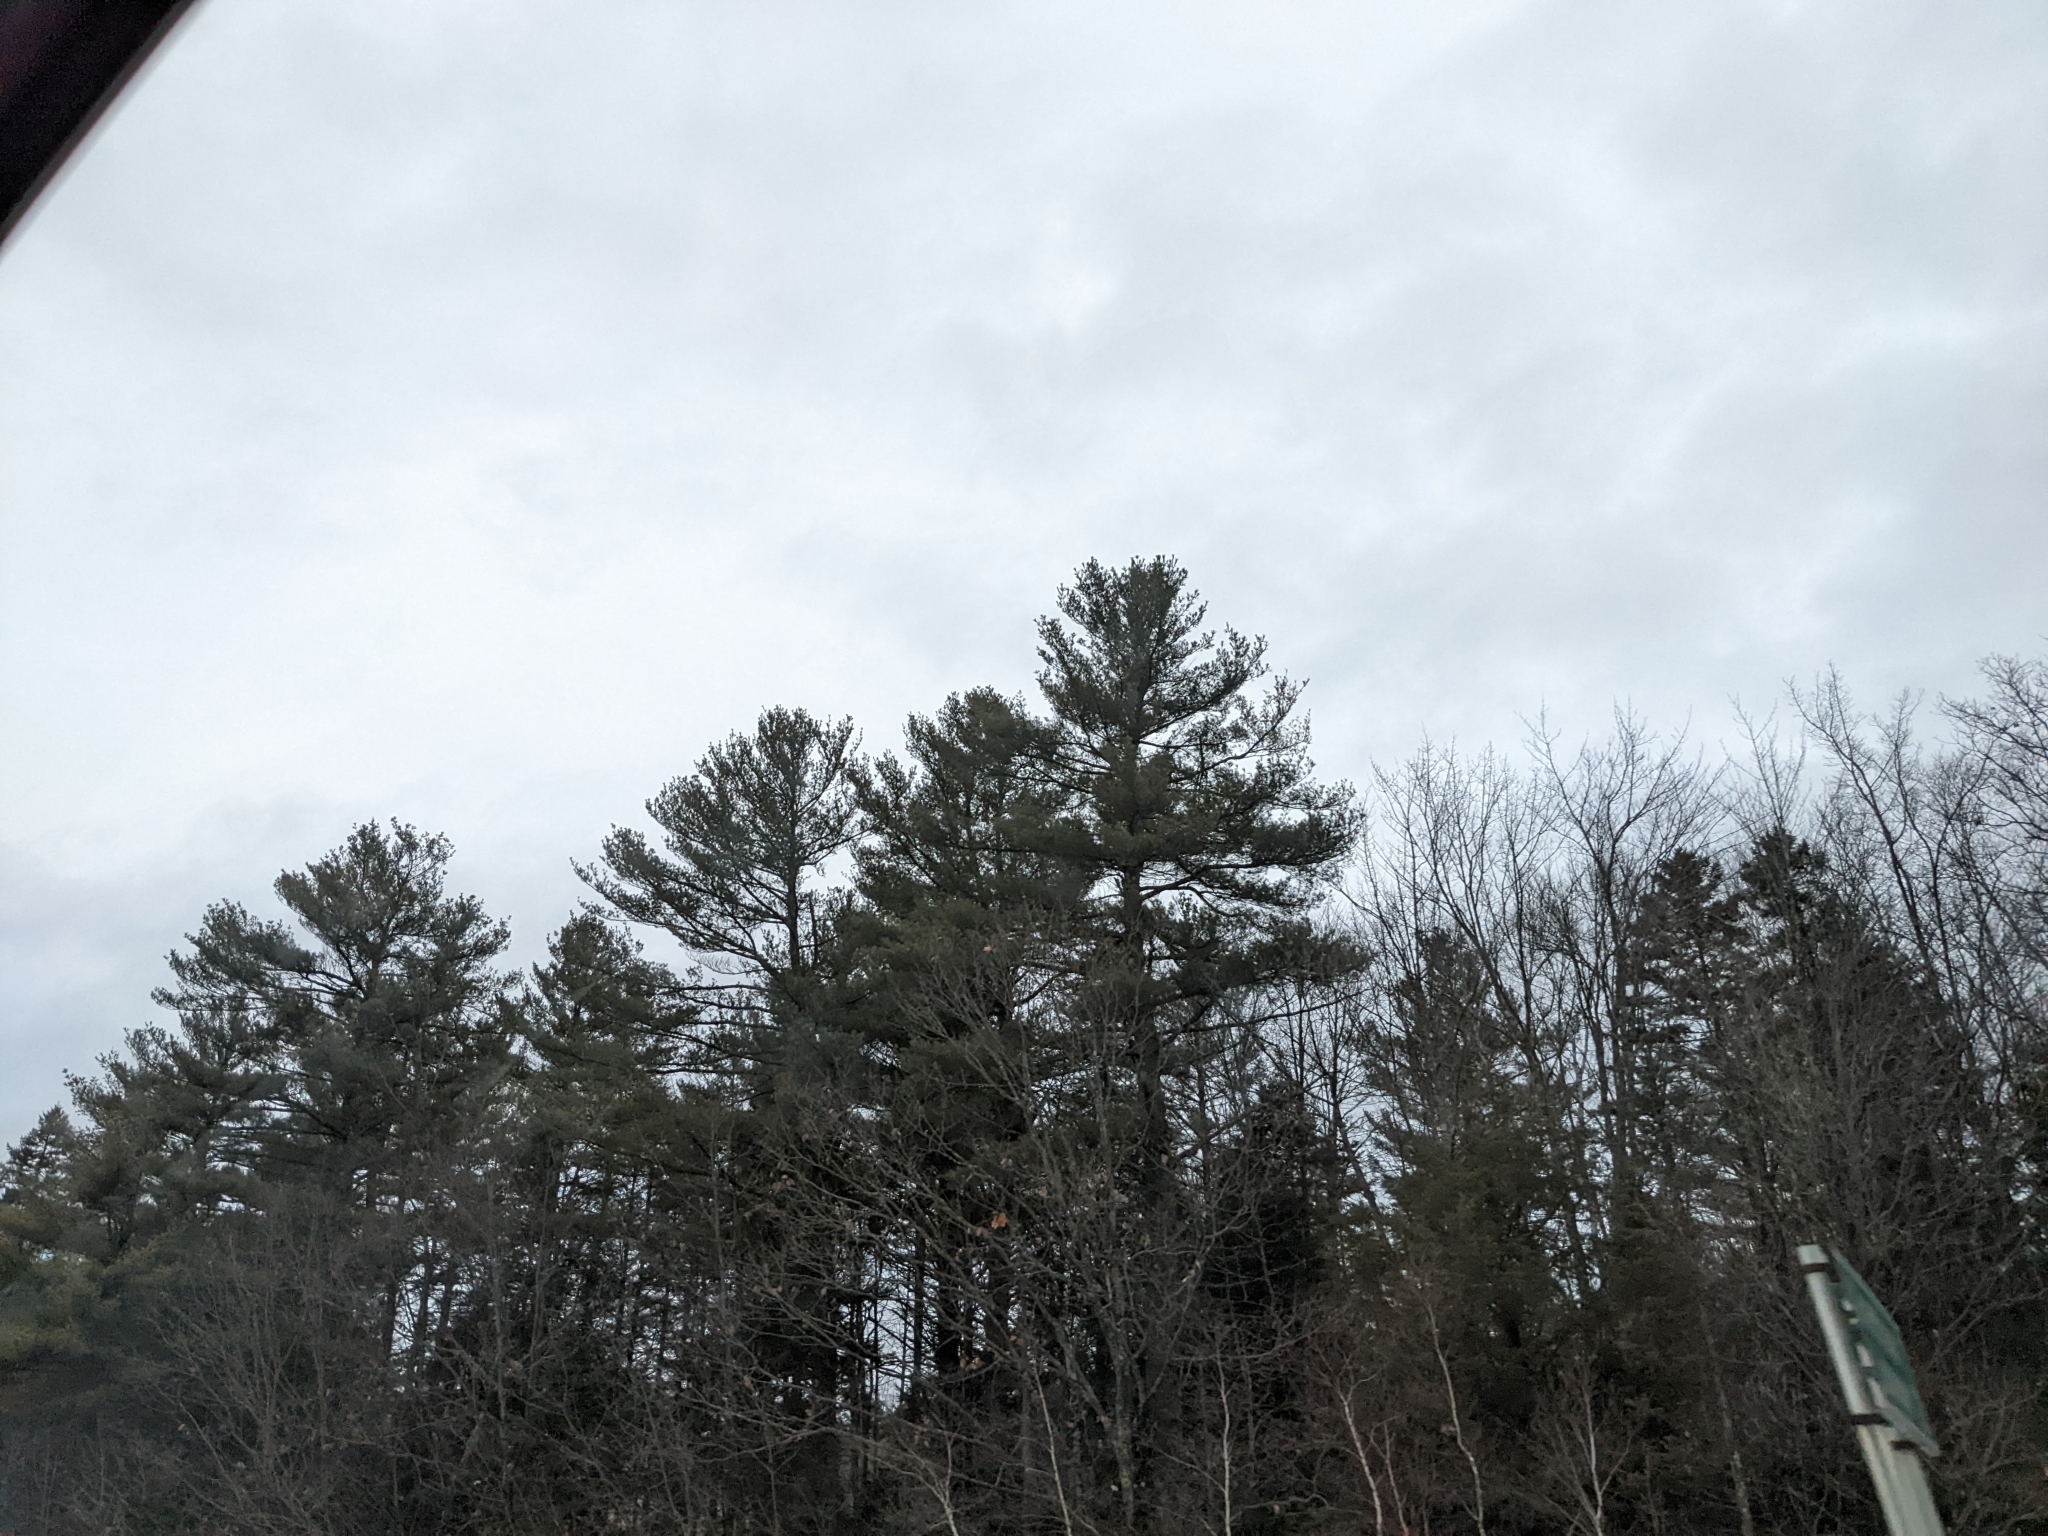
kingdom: Plantae
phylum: Tracheophyta
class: Pinopsida
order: Pinales
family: Pinaceae
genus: Pinus
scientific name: Pinus strobus
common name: Weymouth pine
